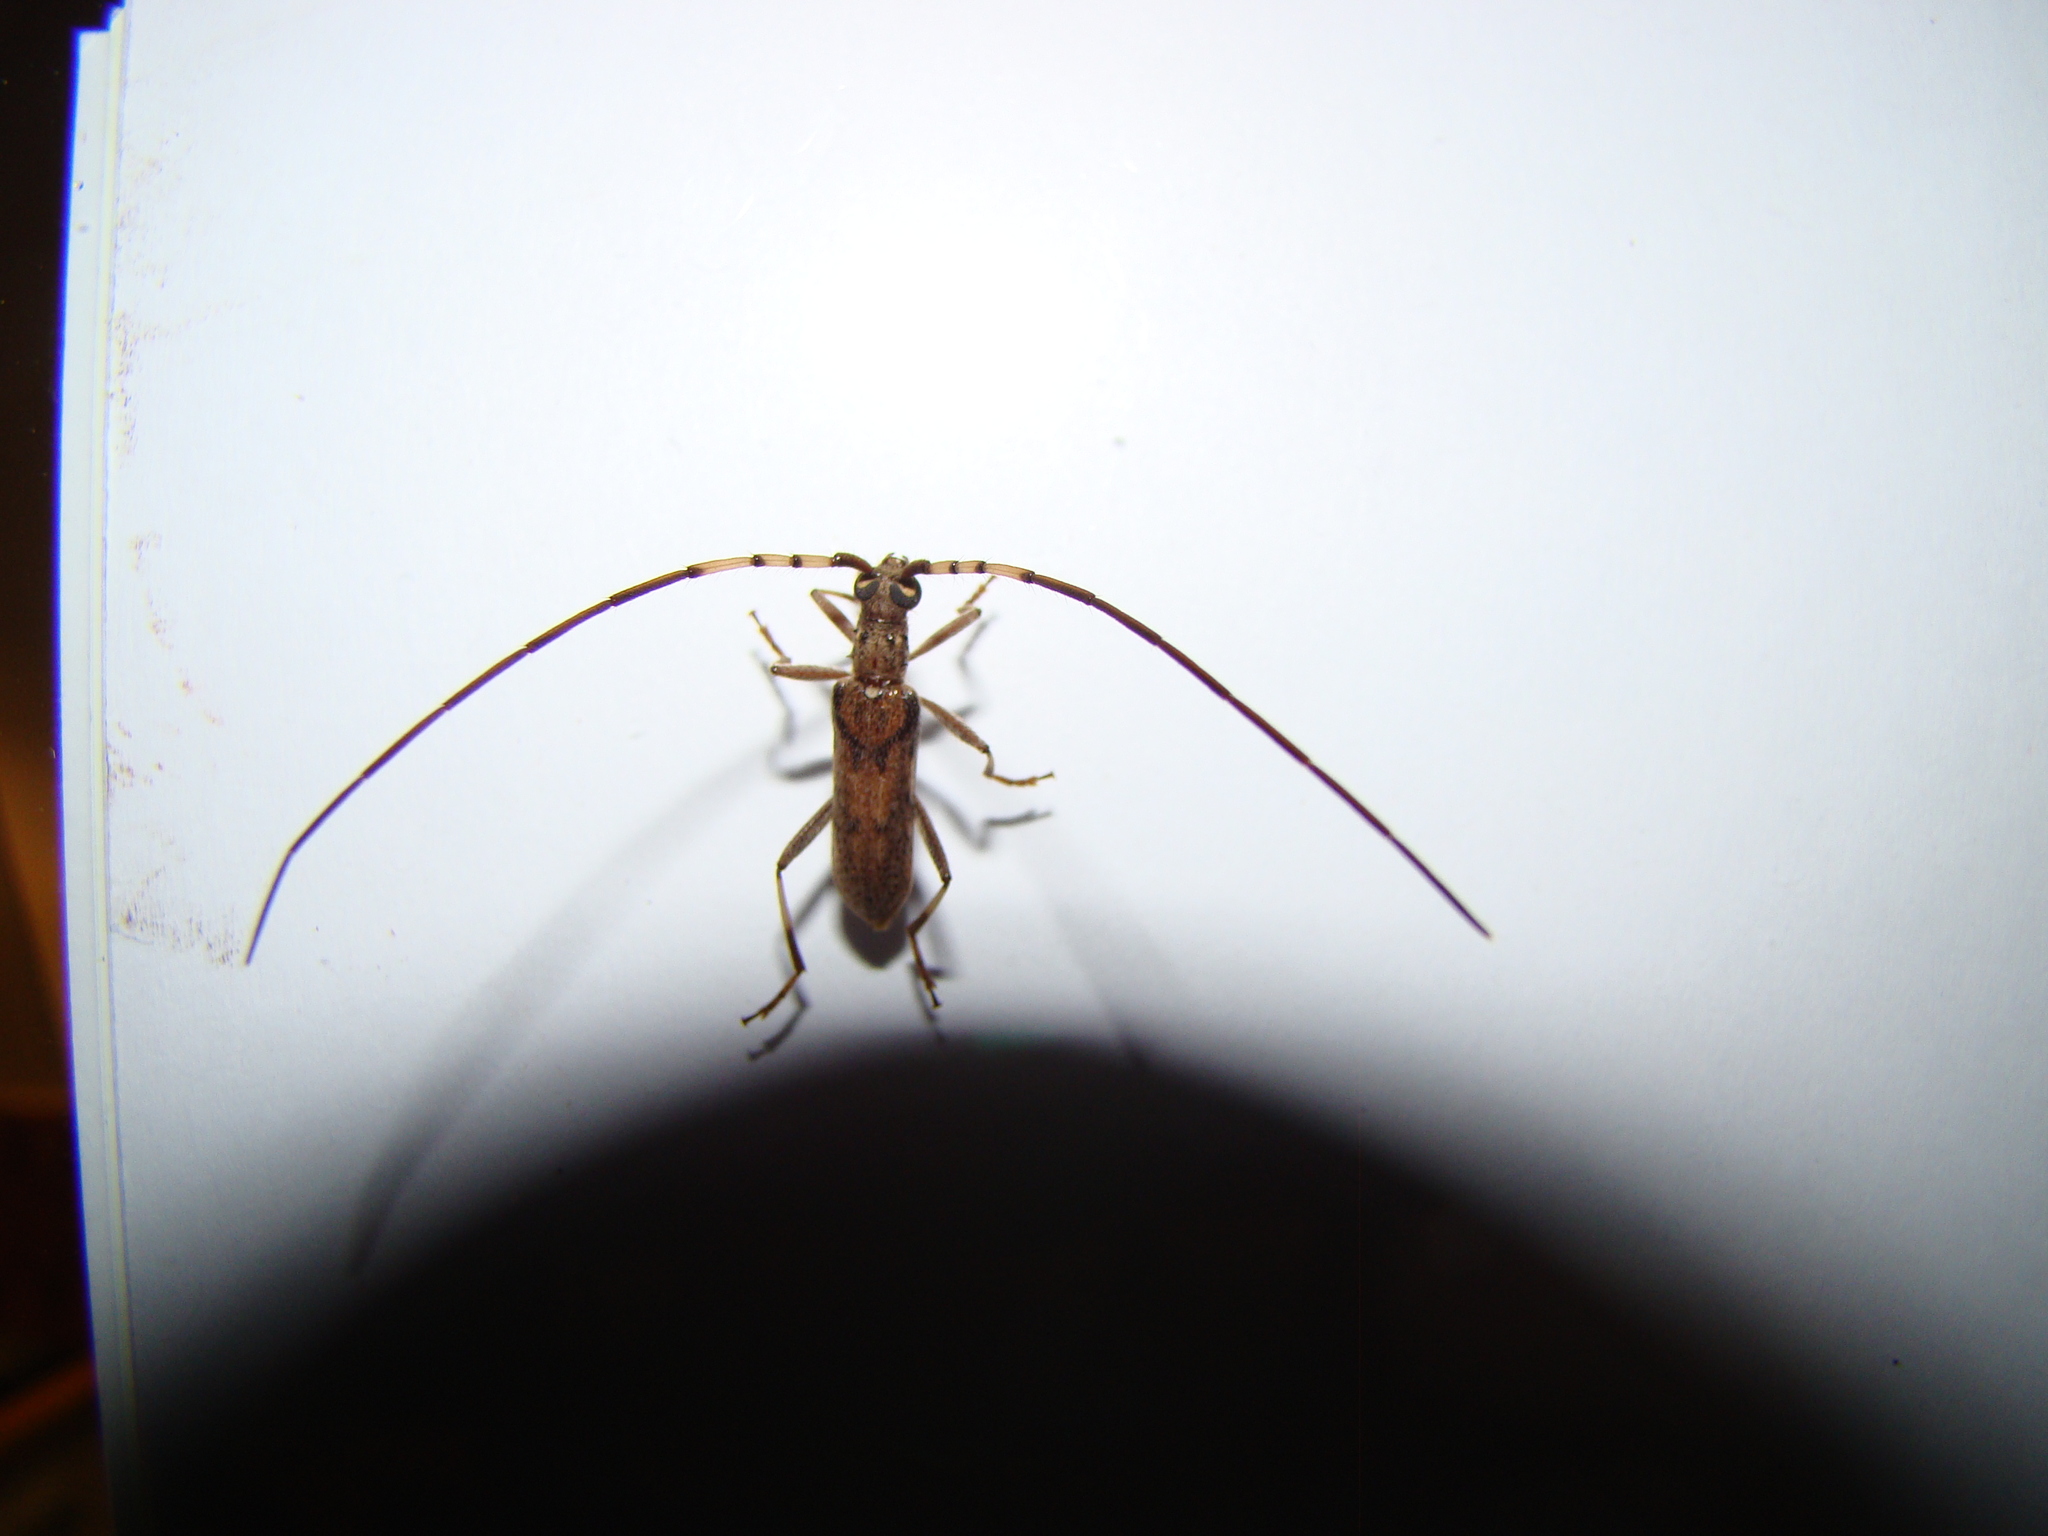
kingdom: Animalia
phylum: Arthropoda
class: Insecta
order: Coleoptera
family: Cerambycidae
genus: Didymocantha
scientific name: Didymocantha obliqua
